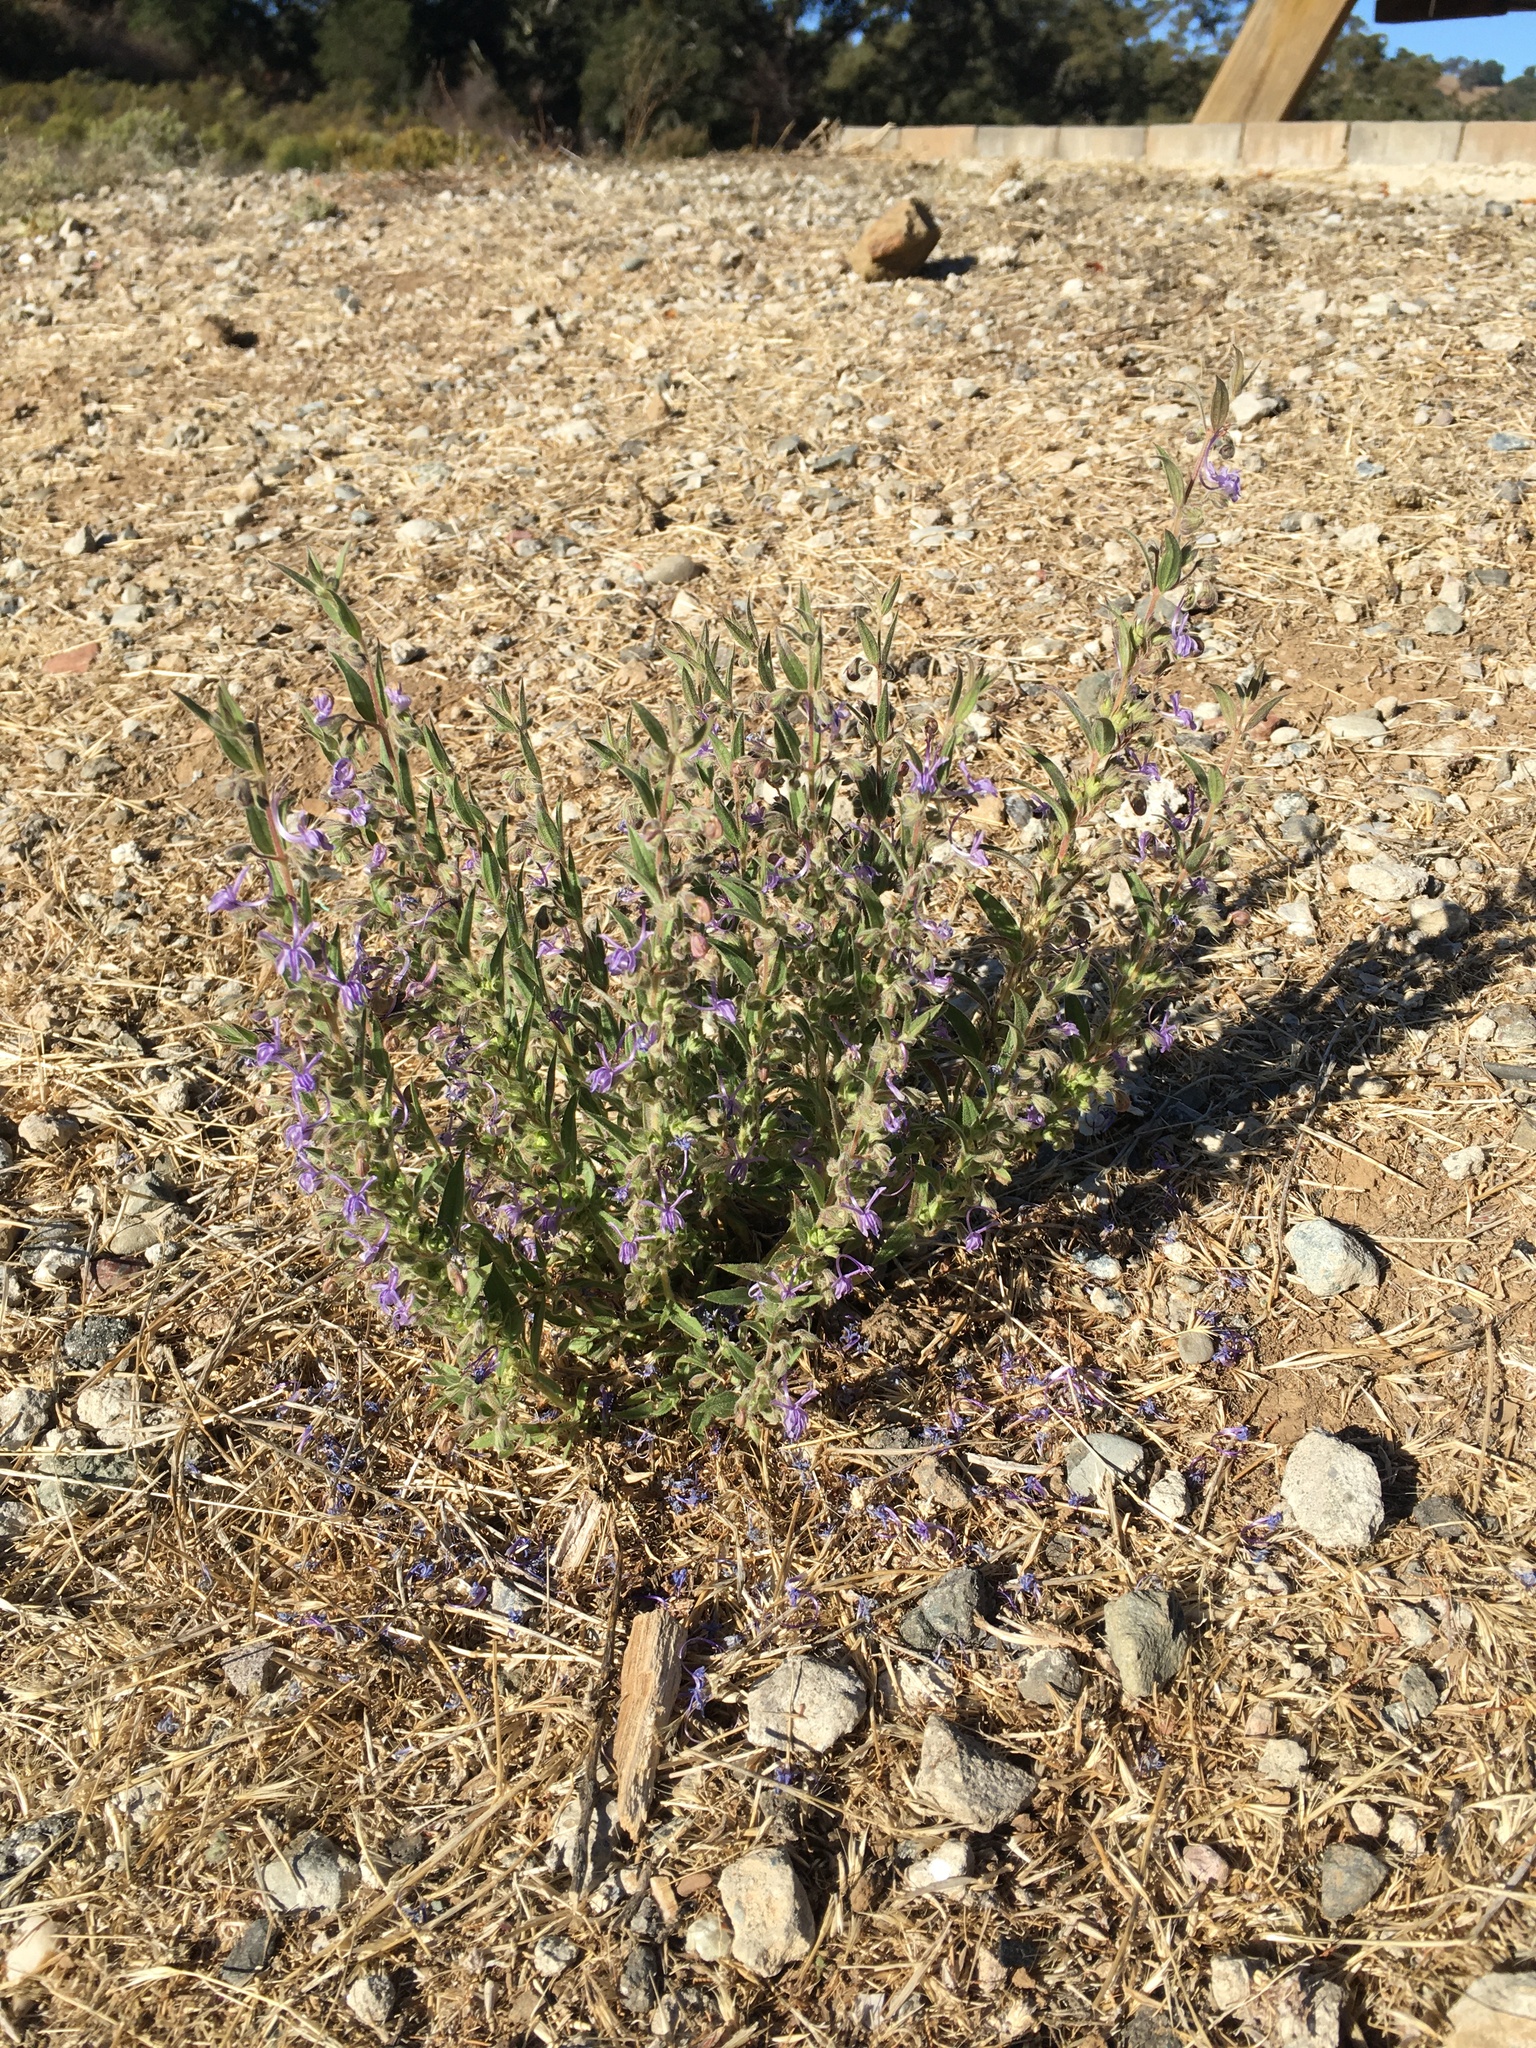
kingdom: Plantae
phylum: Tracheophyta
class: Magnoliopsida
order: Lamiales
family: Lamiaceae
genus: Trichostema
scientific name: Trichostema lanceolatum
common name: Vinegar-weed
